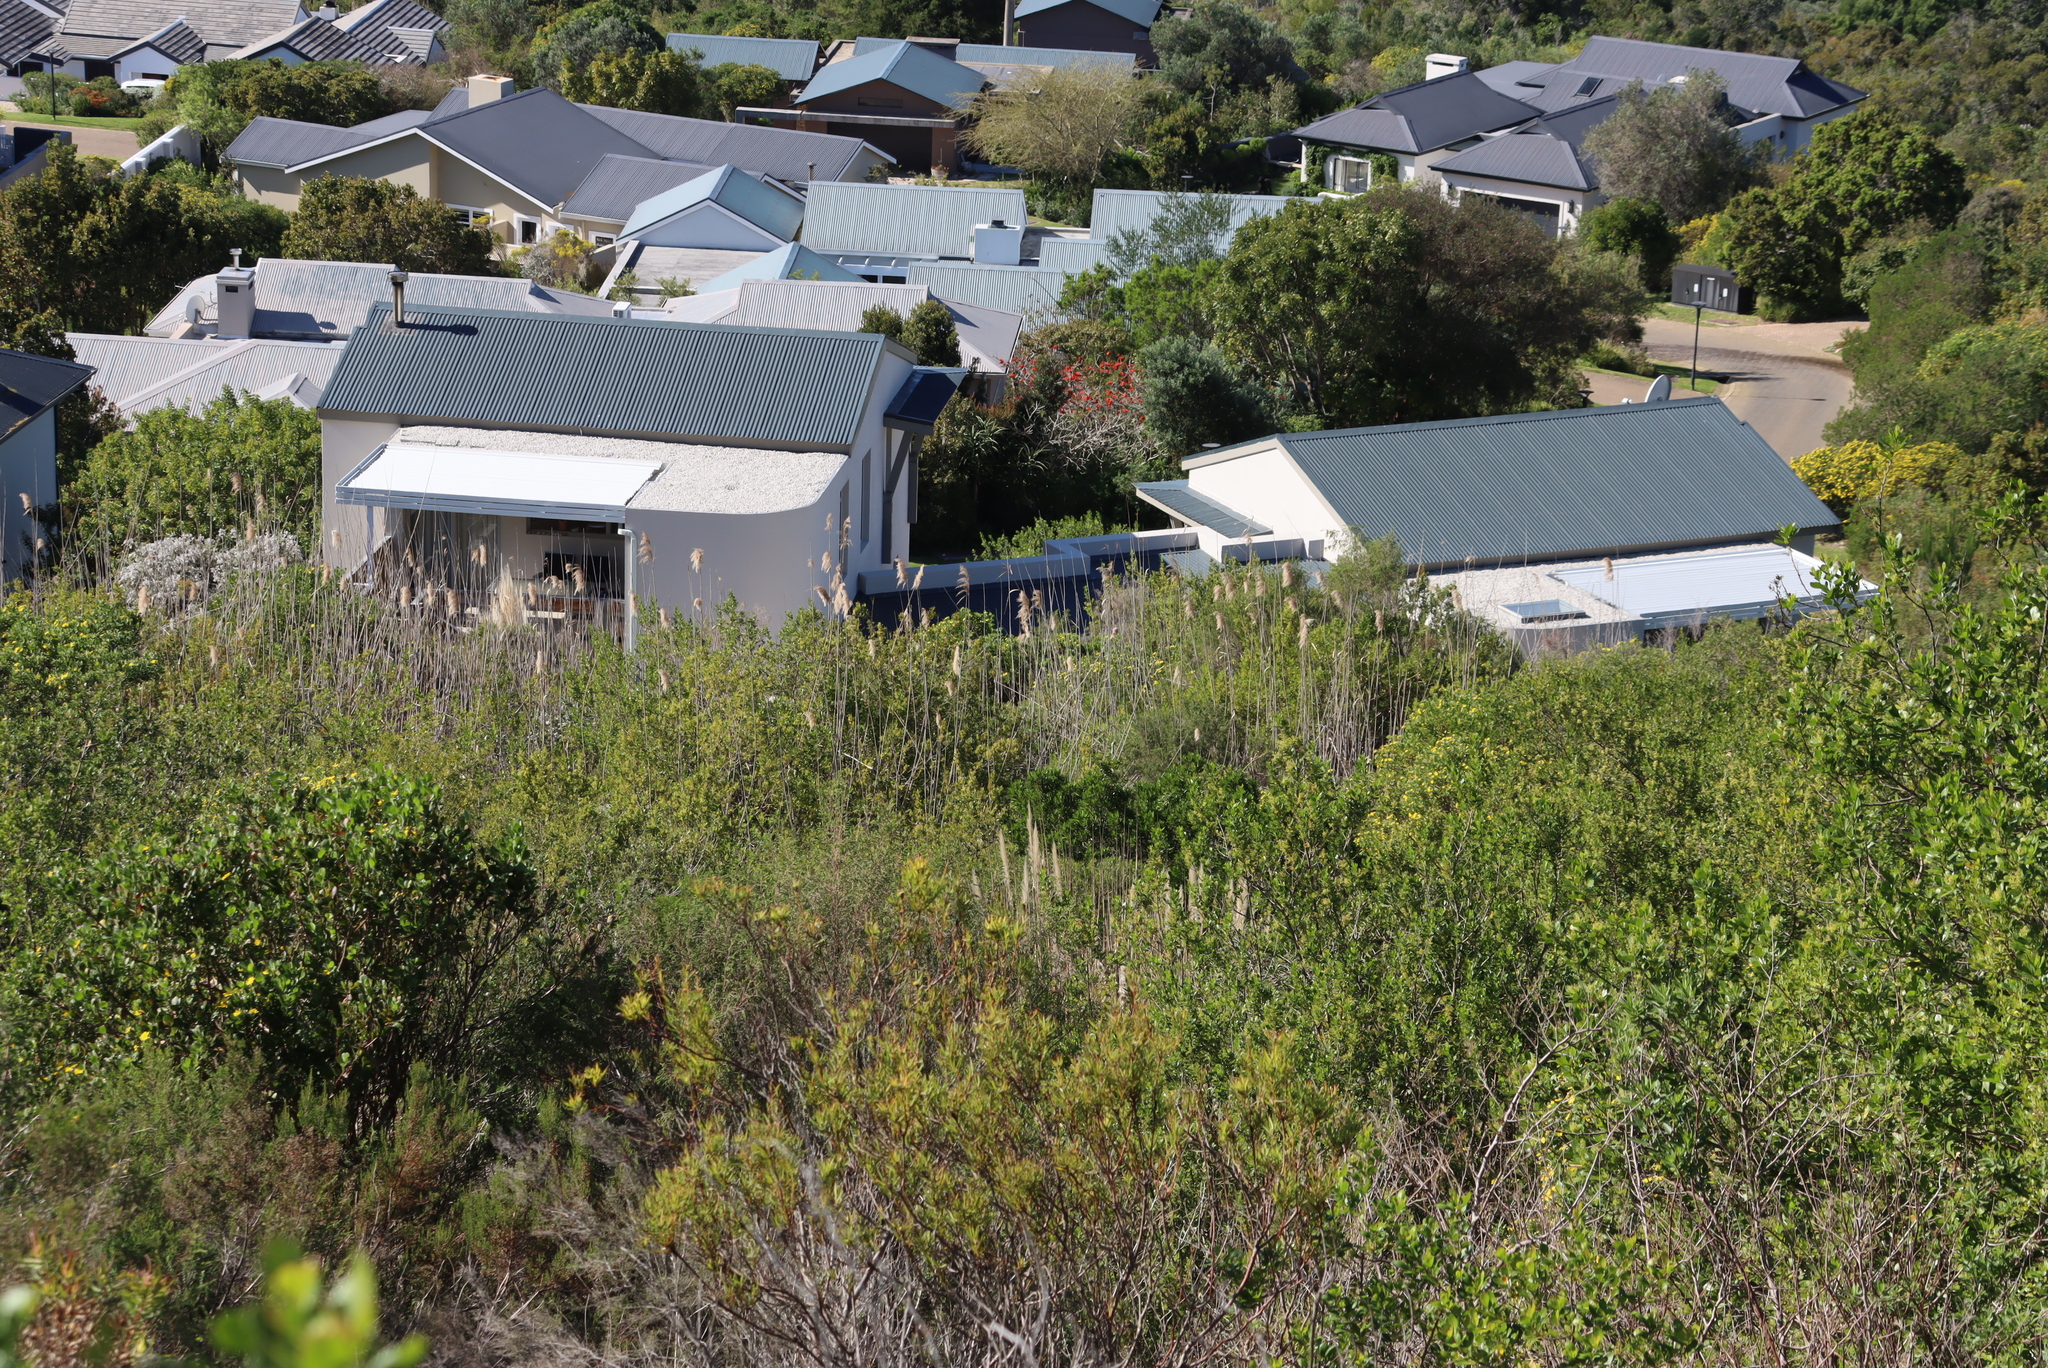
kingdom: Plantae
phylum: Tracheophyta
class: Liliopsida
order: Poales
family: Poaceae
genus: Phragmites
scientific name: Phragmites australis
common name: Common reed
